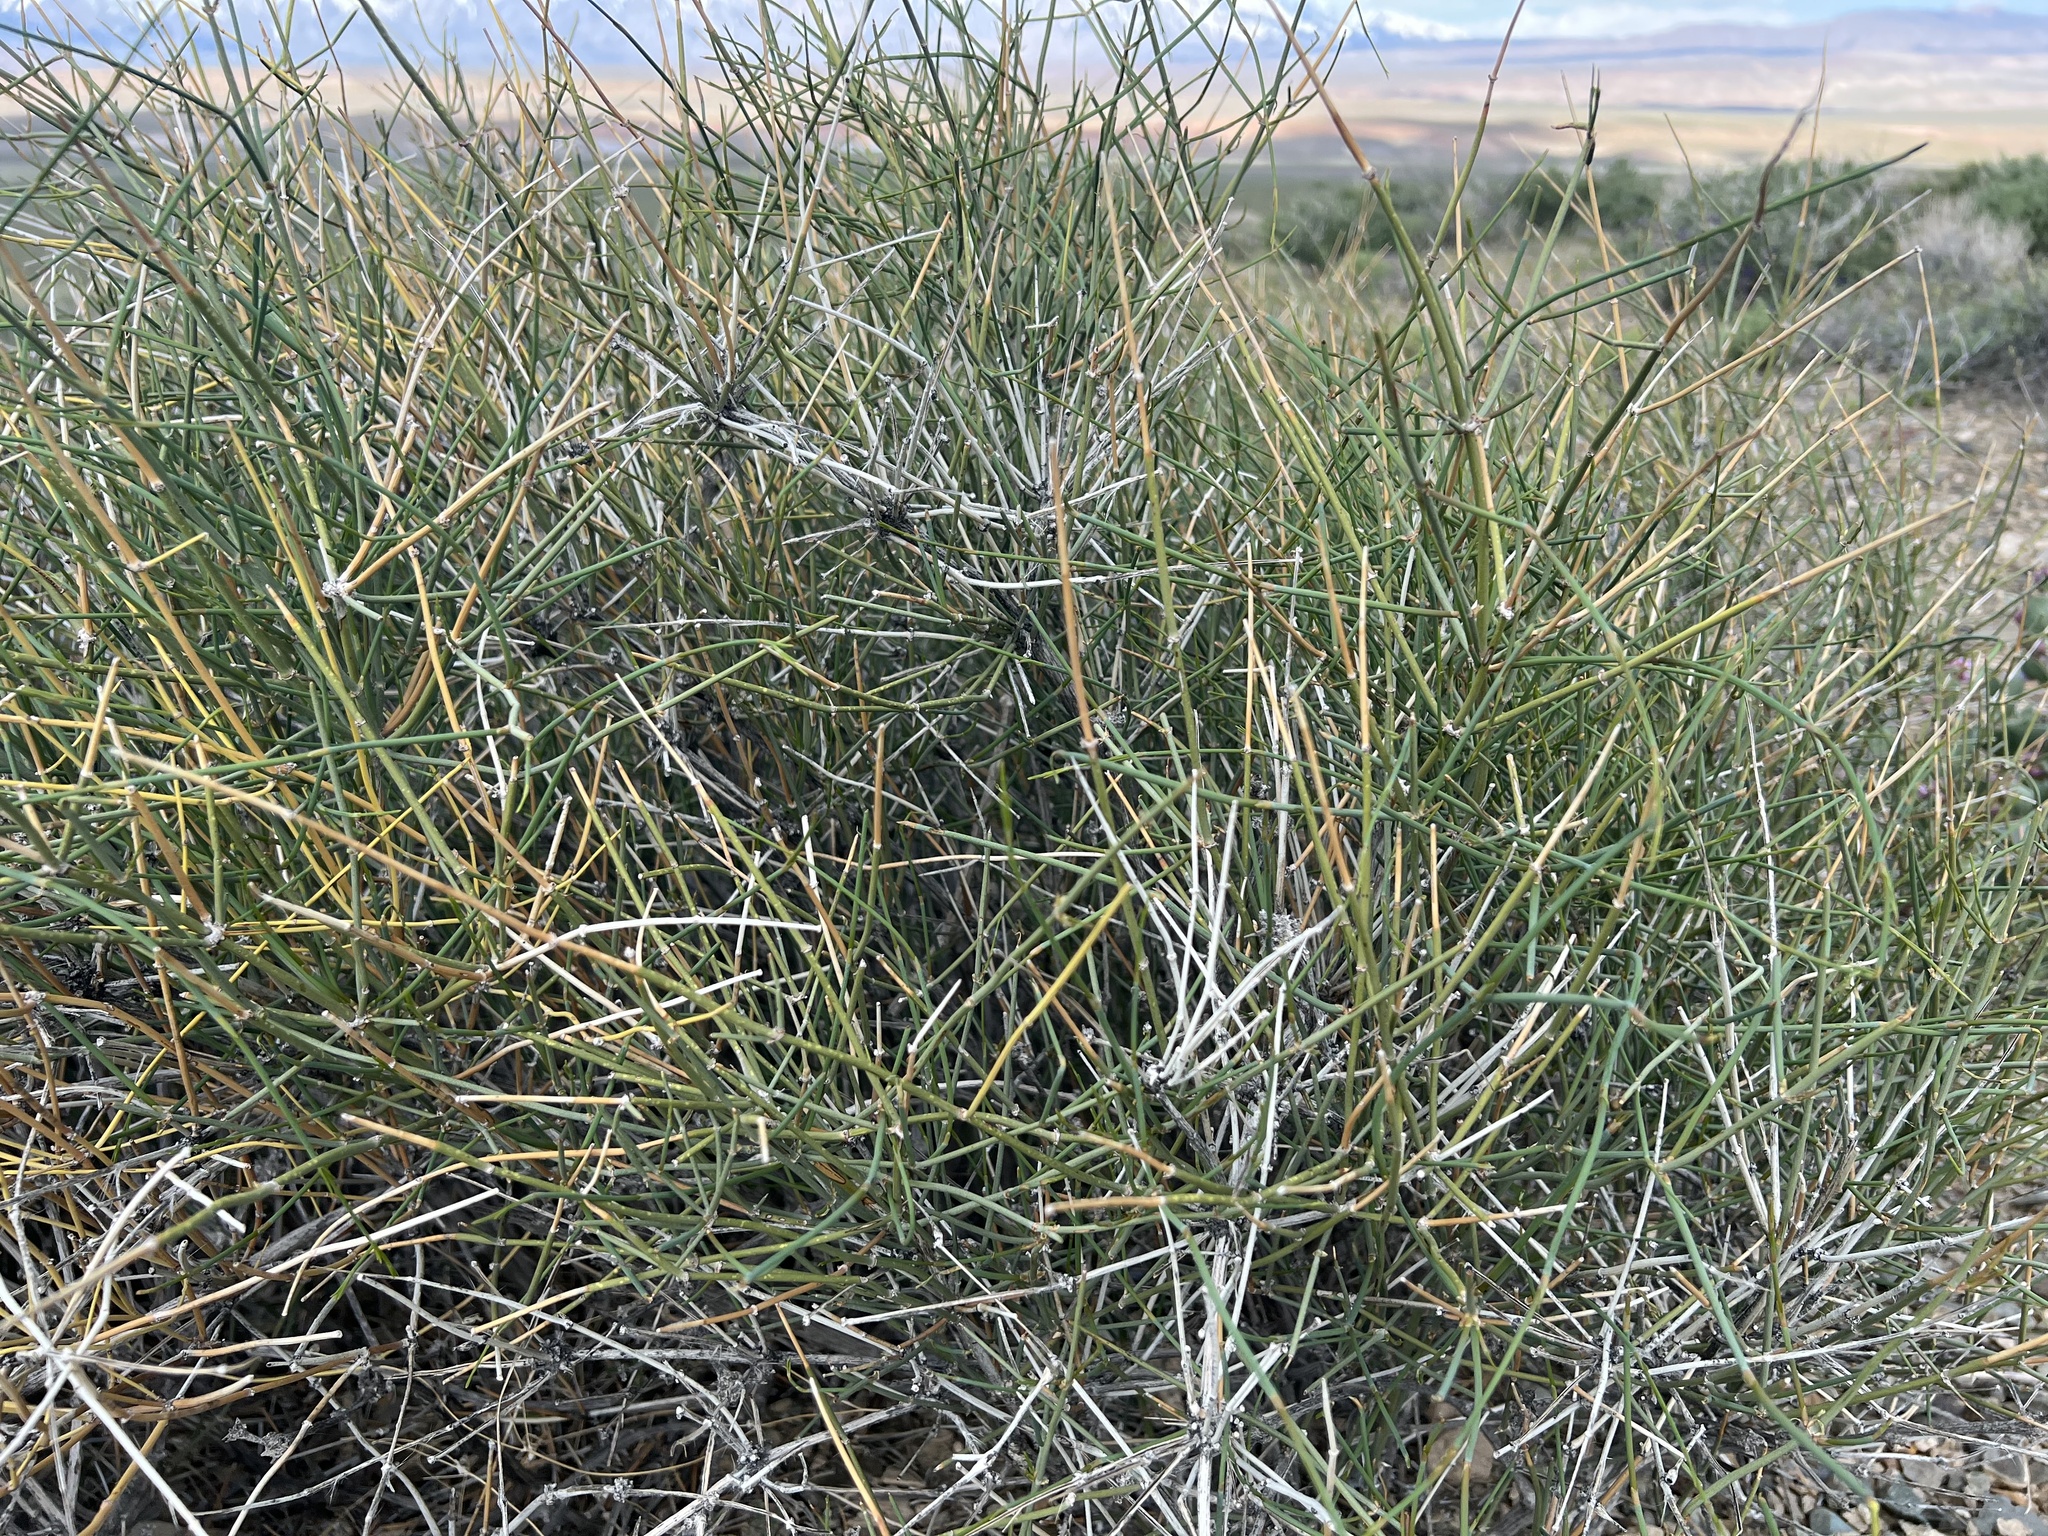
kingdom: Plantae
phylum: Tracheophyta
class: Gnetopsida
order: Ephedrales
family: Ephedraceae
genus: Ephedra
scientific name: Ephedra nevadensis
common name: Gray ephedra
